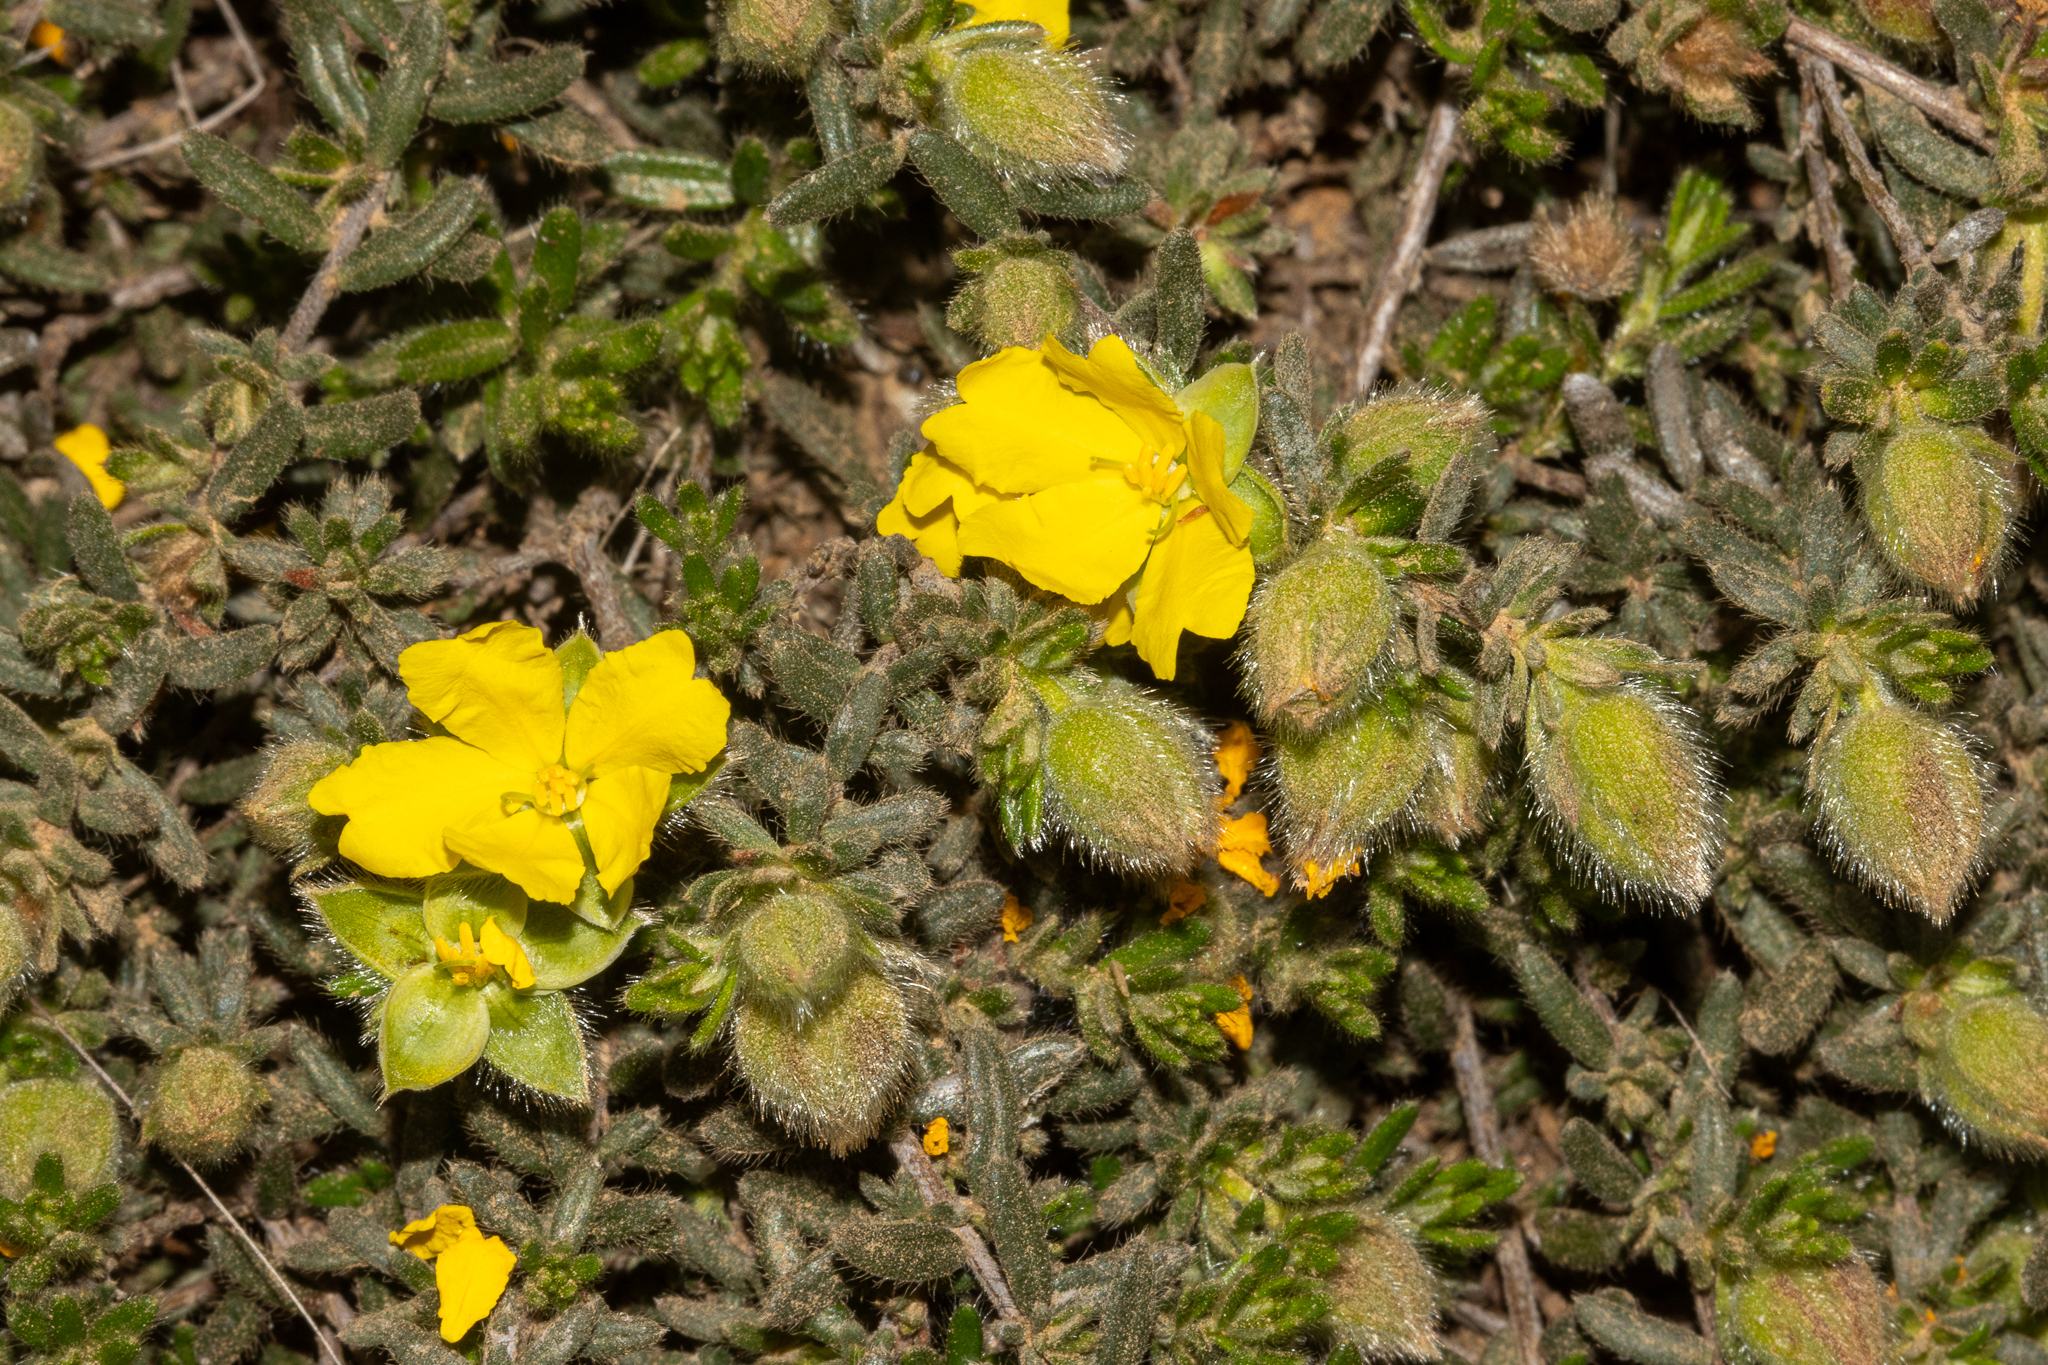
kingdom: Plantae
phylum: Tracheophyta
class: Magnoliopsida
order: Dilleniales
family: Dilleniaceae
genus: Hibbertia
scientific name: Hibbertia humifusa
